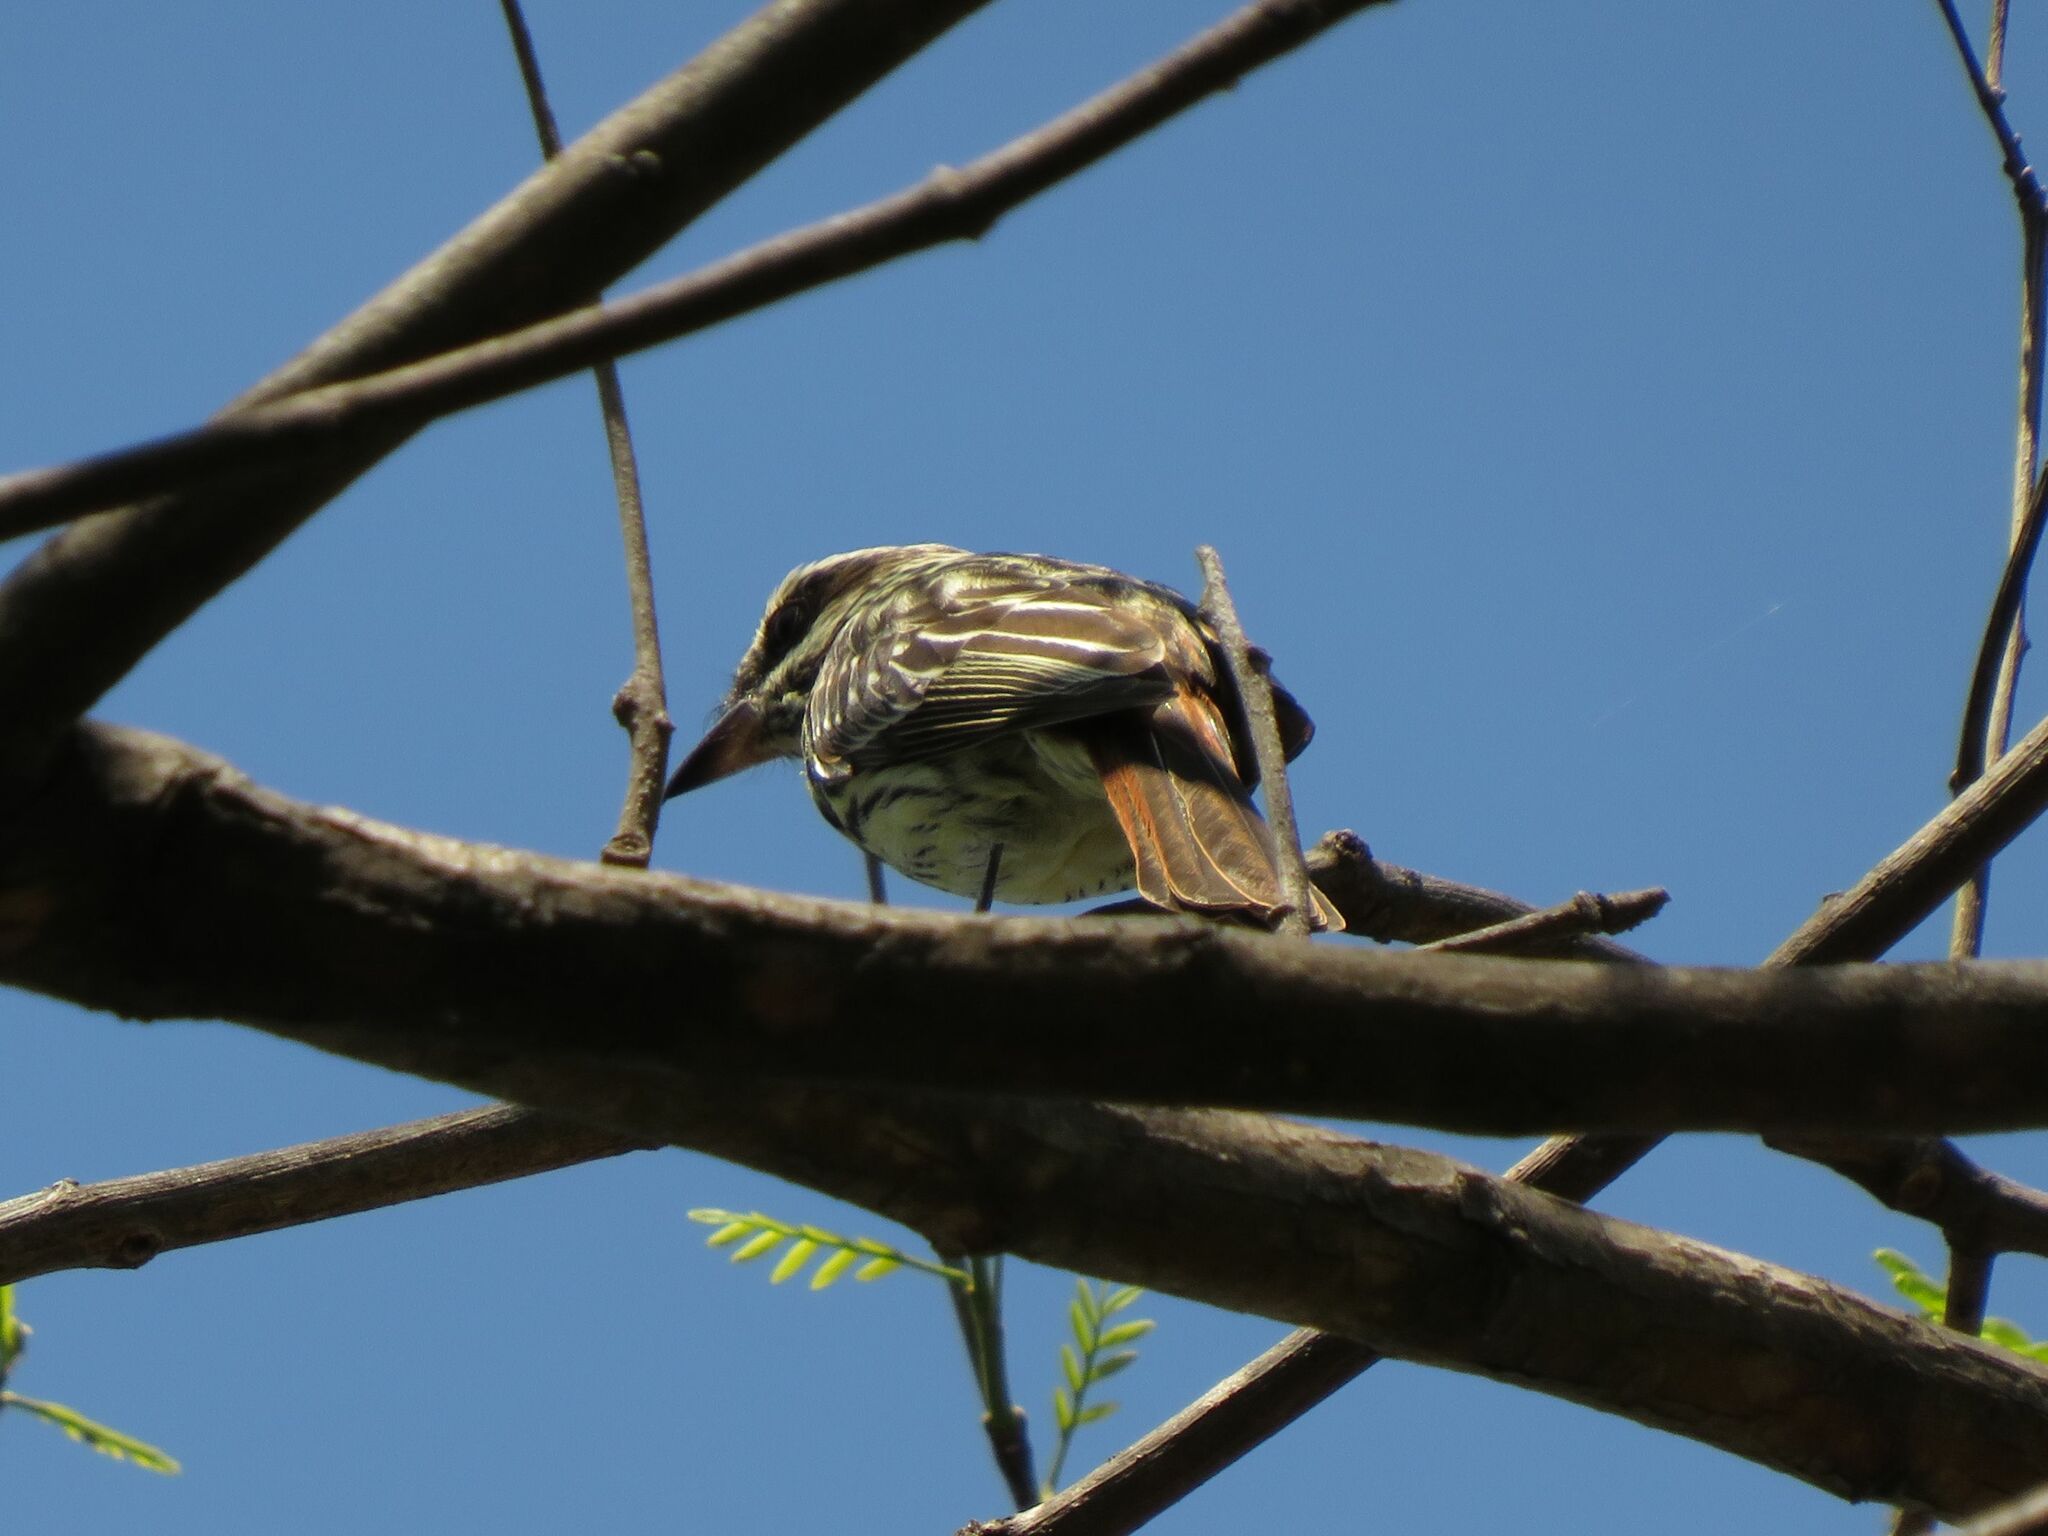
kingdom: Animalia
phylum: Chordata
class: Aves
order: Passeriformes
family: Tyrannidae
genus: Myiodynastes
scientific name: Myiodynastes maculatus
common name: Streaked flycatcher
